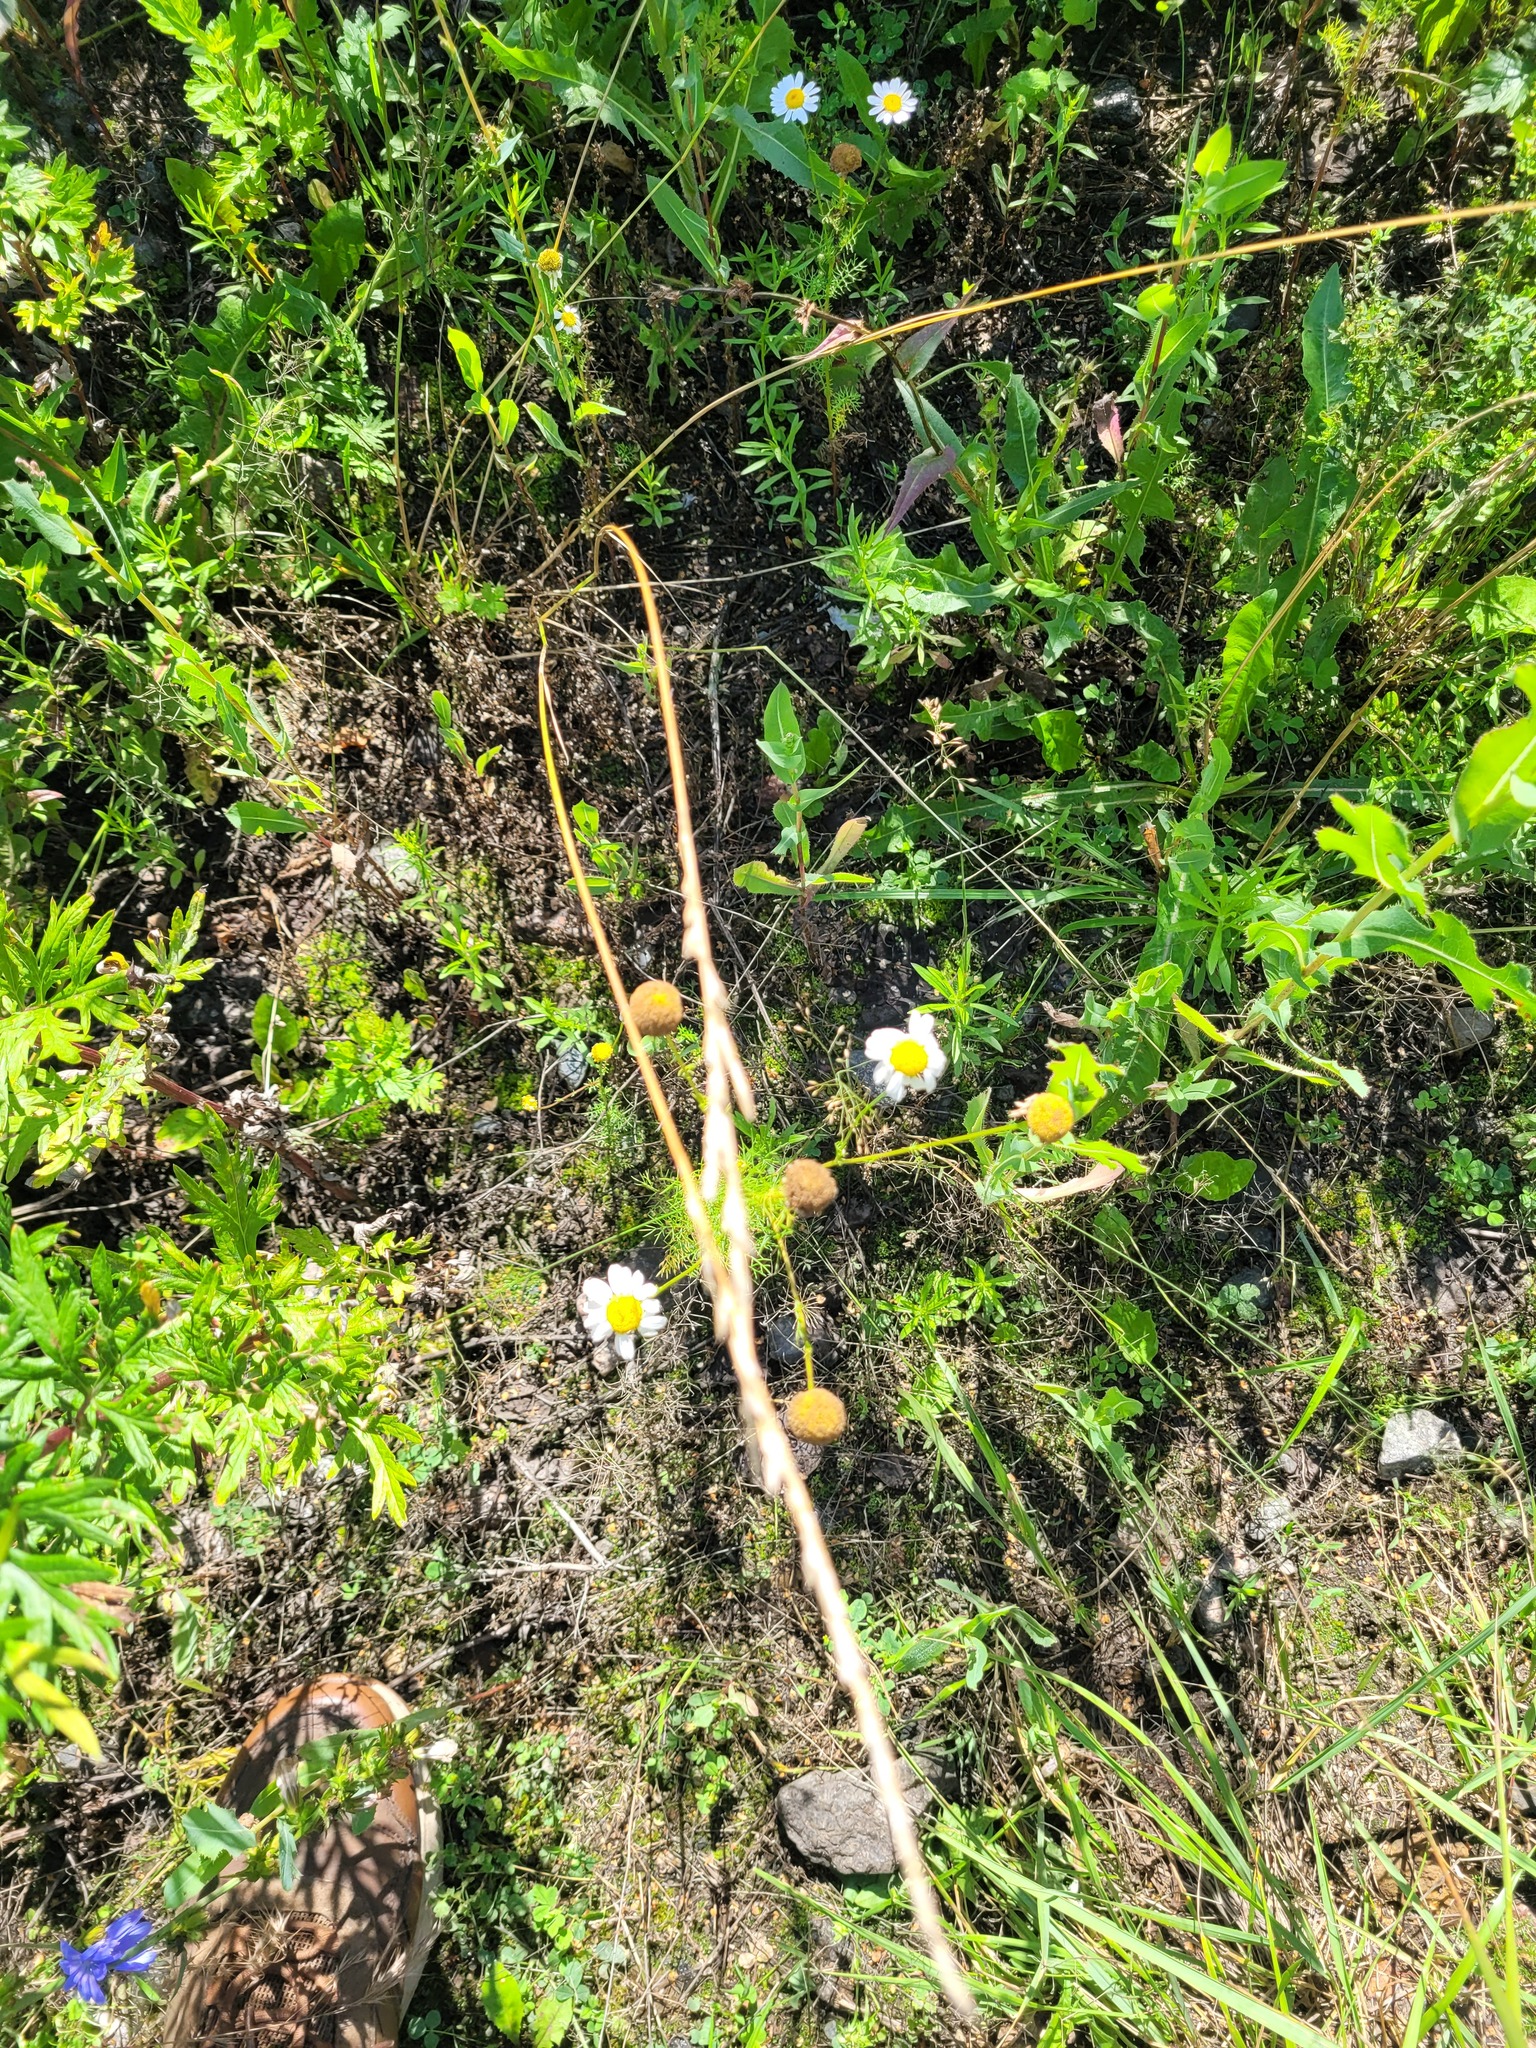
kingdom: Plantae
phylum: Tracheophyta
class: Magnoliopsida
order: Asterales
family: Asteraceae
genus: Tripleurospermum
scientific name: Tripleurospermum inodorum
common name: Scentless mayweed
